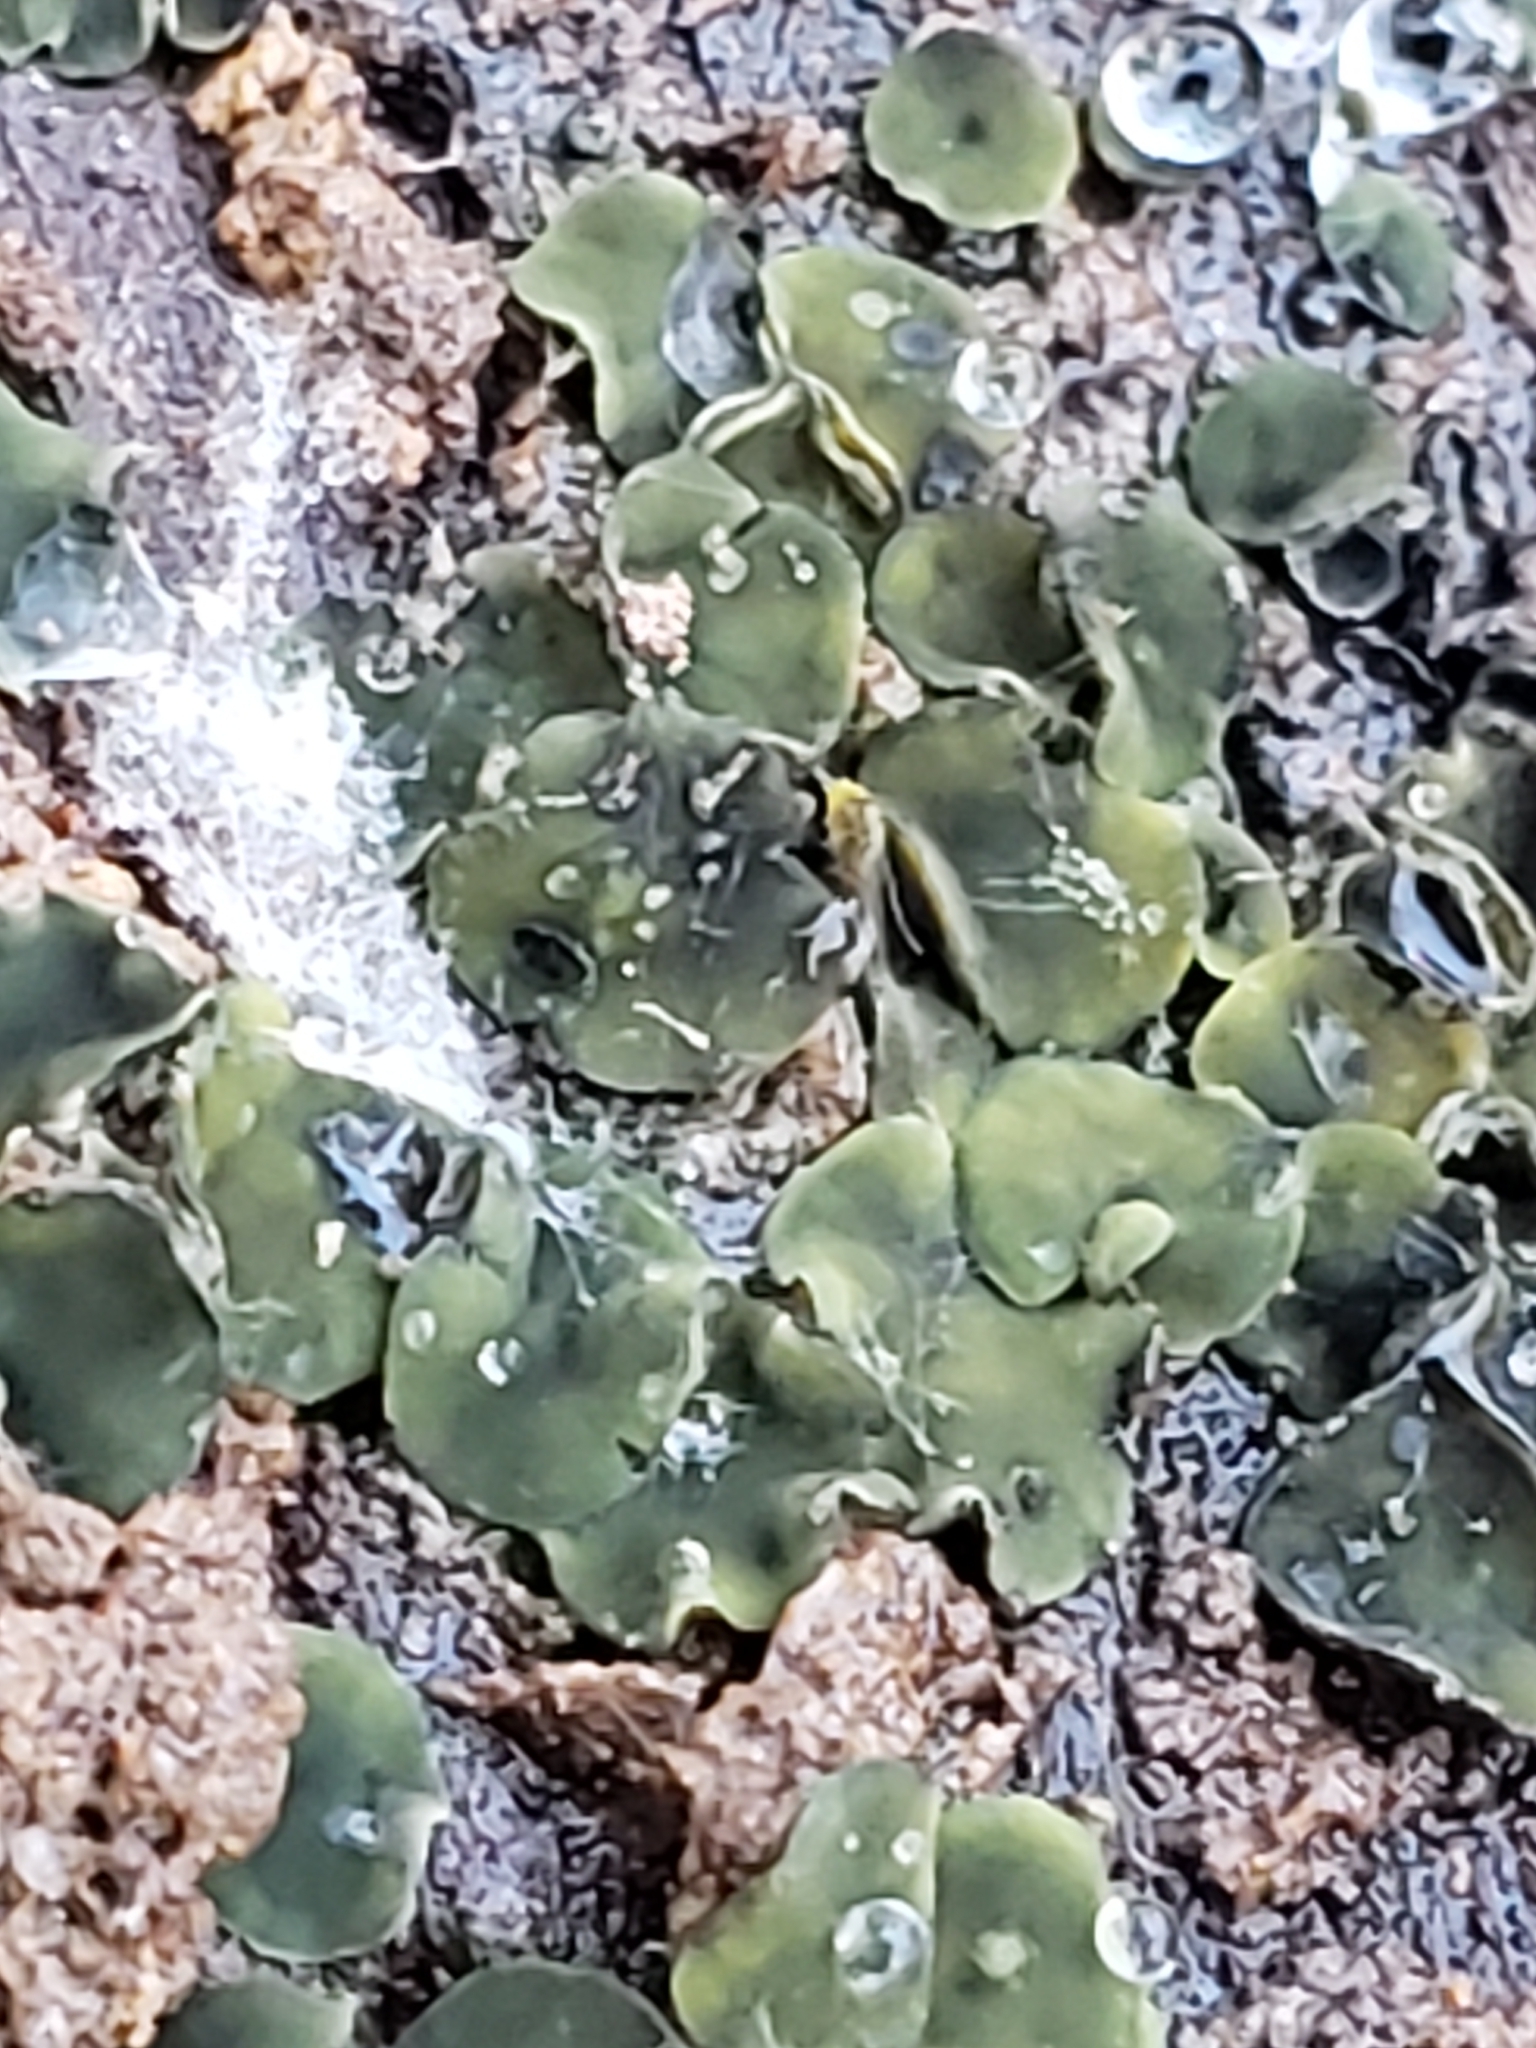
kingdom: Fungi
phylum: Ascomycota
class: Leotiomycetes
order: Helotiales
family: Chlorospleniaceae
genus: Chlorosplenium
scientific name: Chlorosplenium chlora
